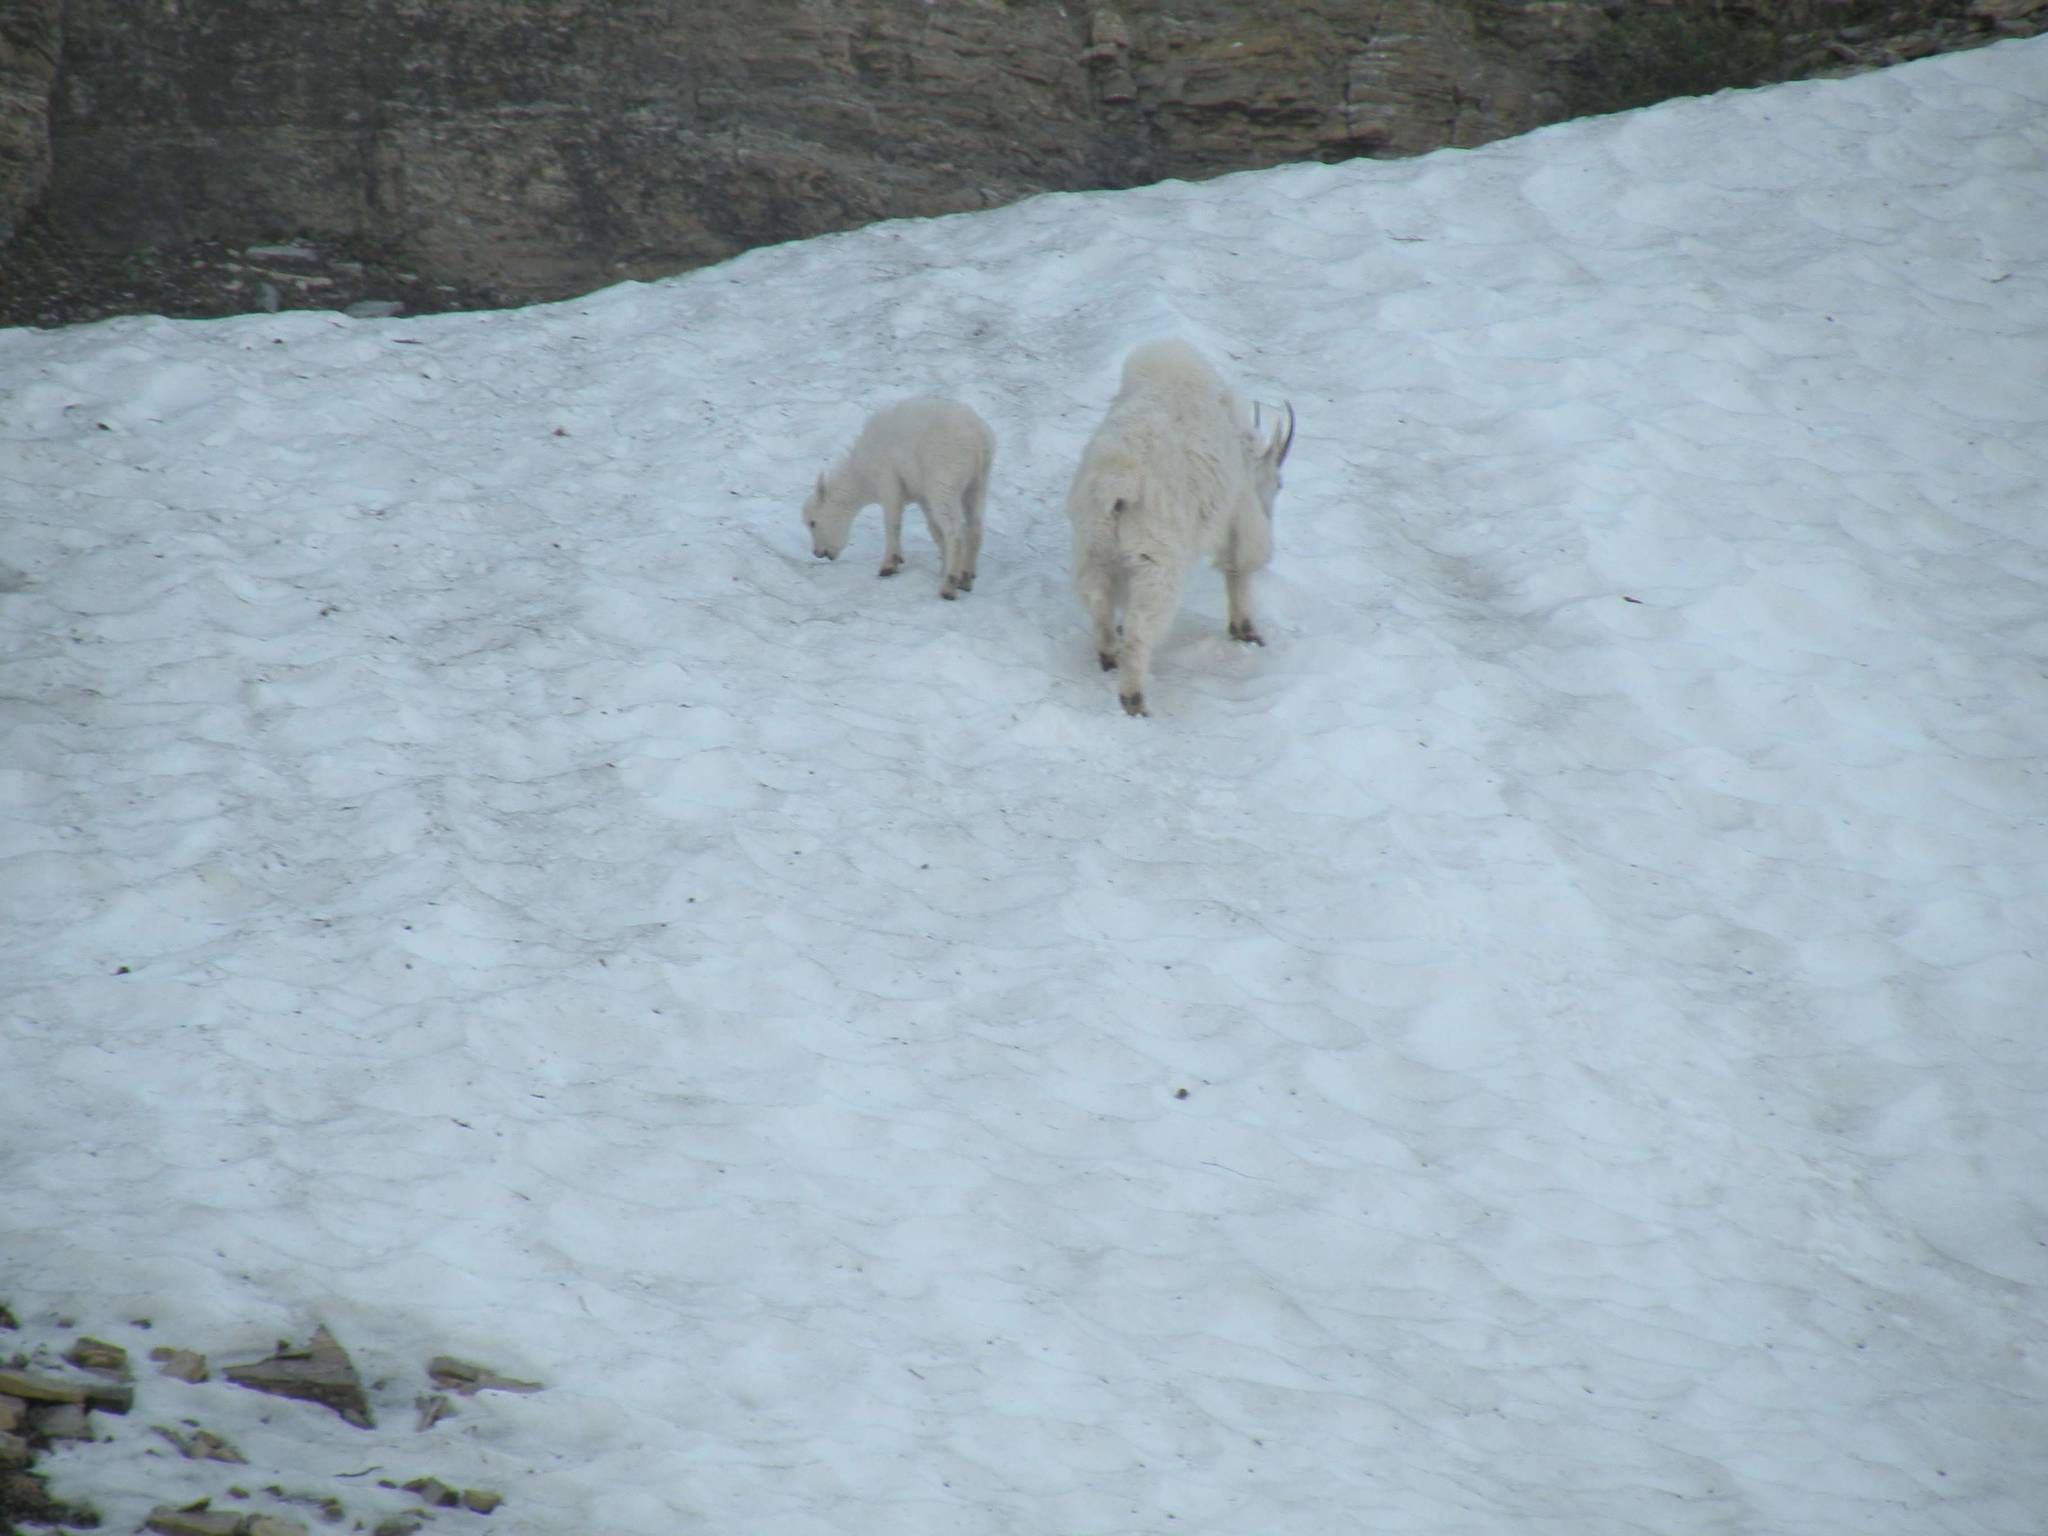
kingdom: Animalia
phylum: Chordata
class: Mammalia
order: Artiodactyla
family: Bovidae
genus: Oreamnos
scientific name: Oreamnos americanus
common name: Mountain goat
